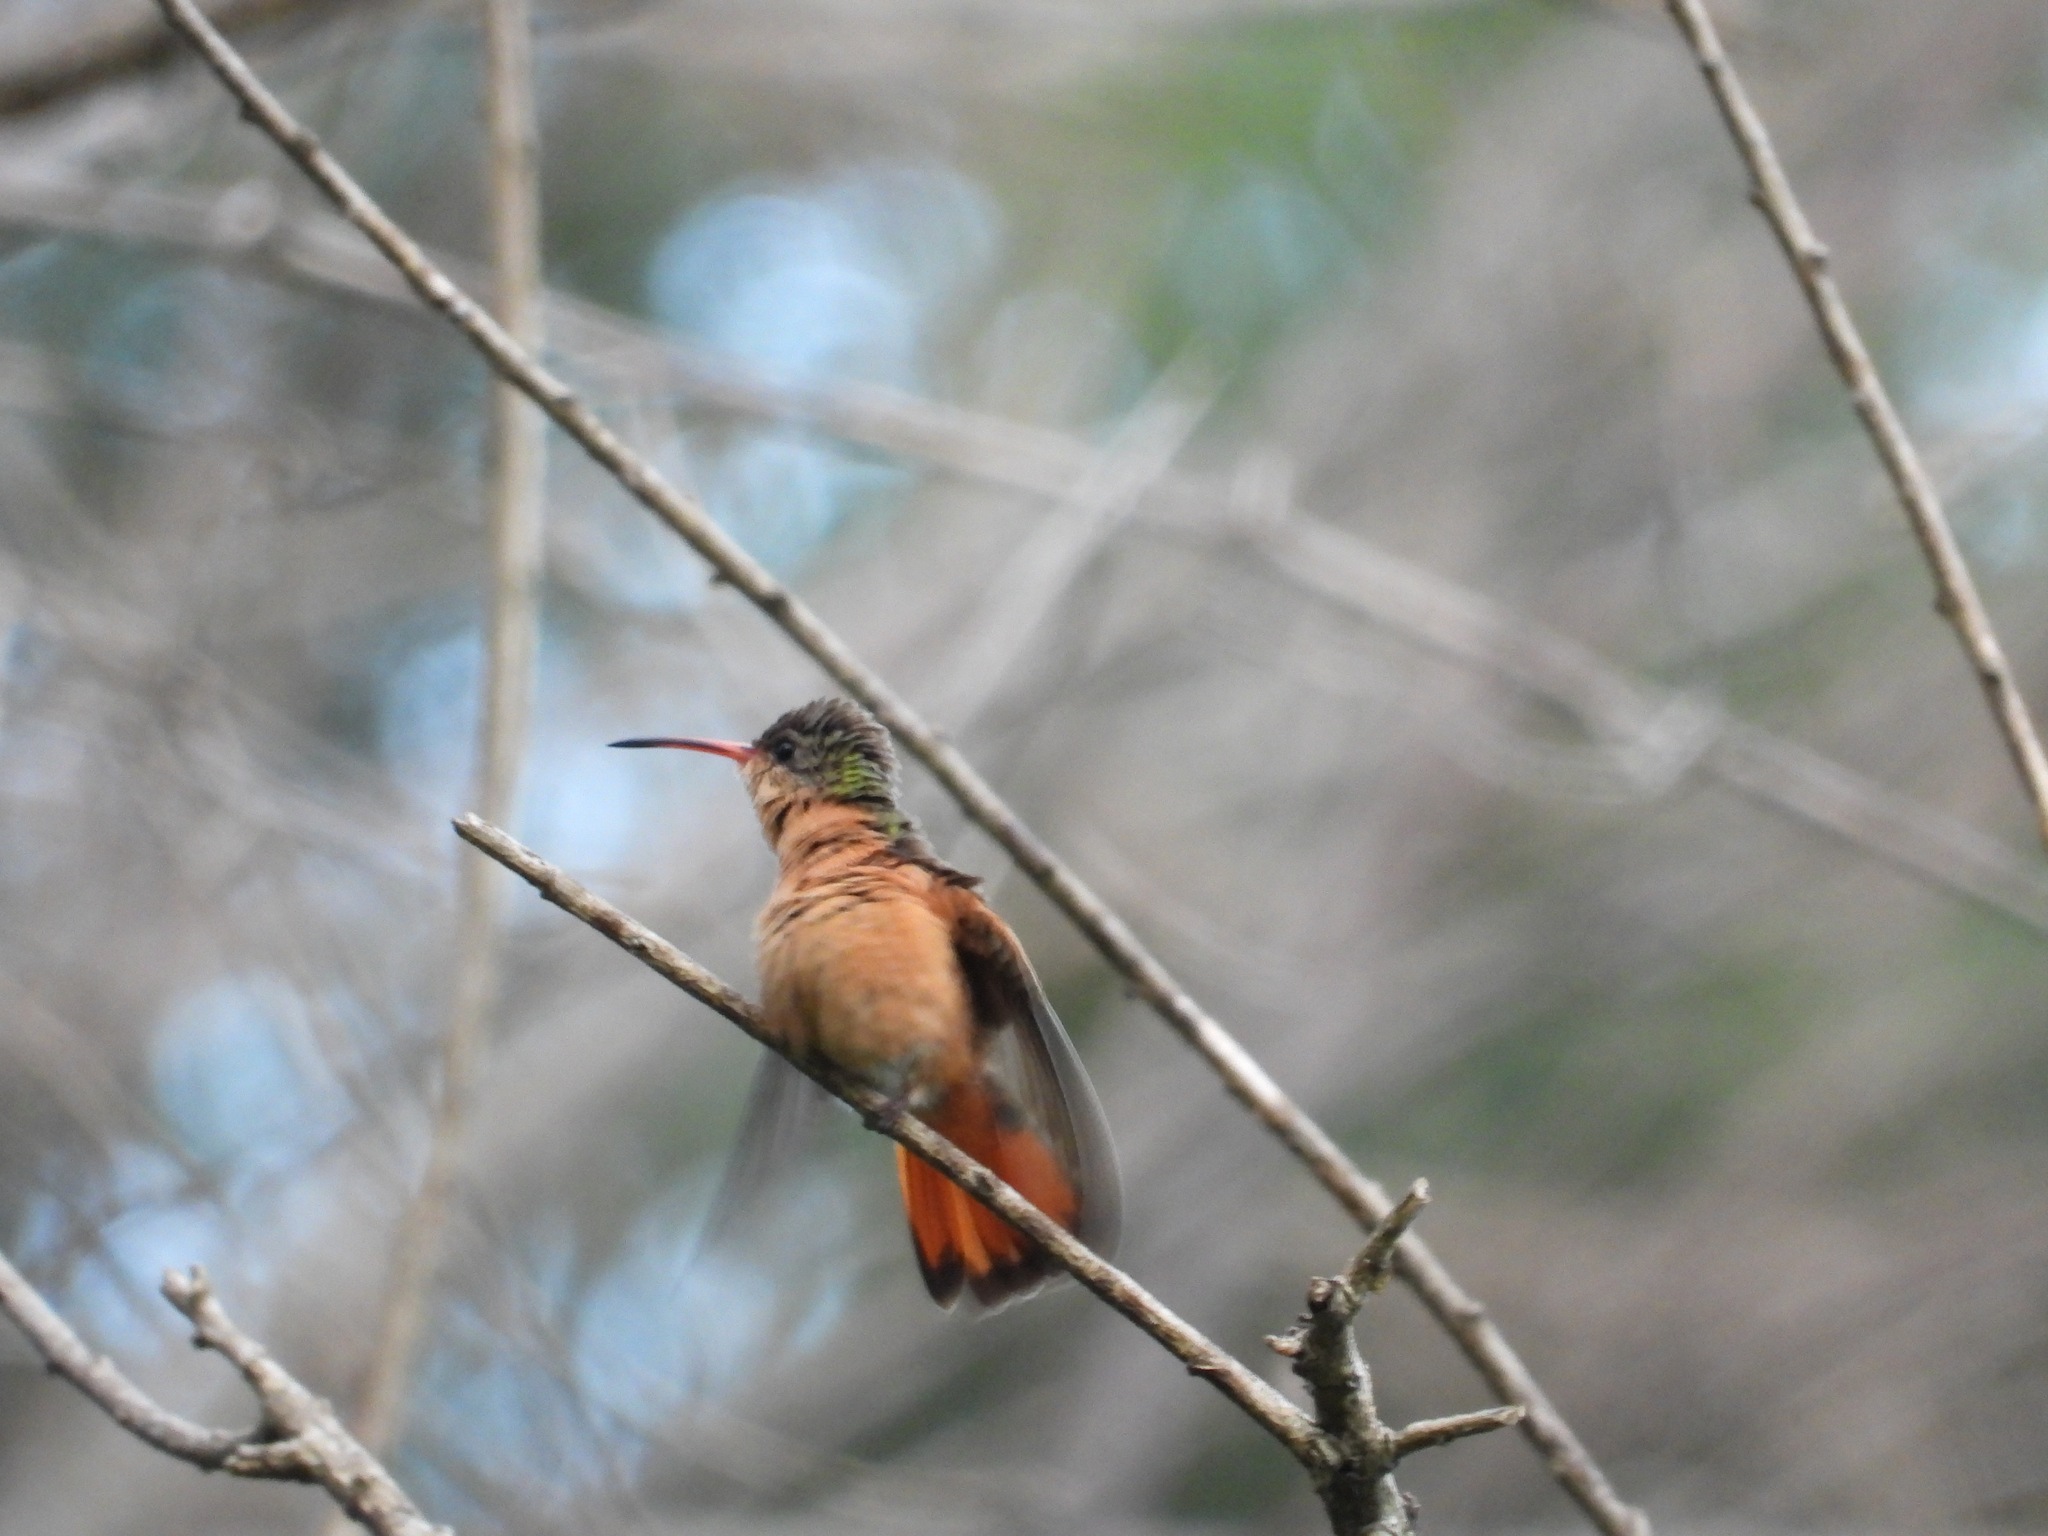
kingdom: Animalia
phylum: Chordata
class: Aves
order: Apodiformes
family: Trochilidae
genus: Amazilia
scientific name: Amazilia rutila
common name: Cinnamon hummingbird
